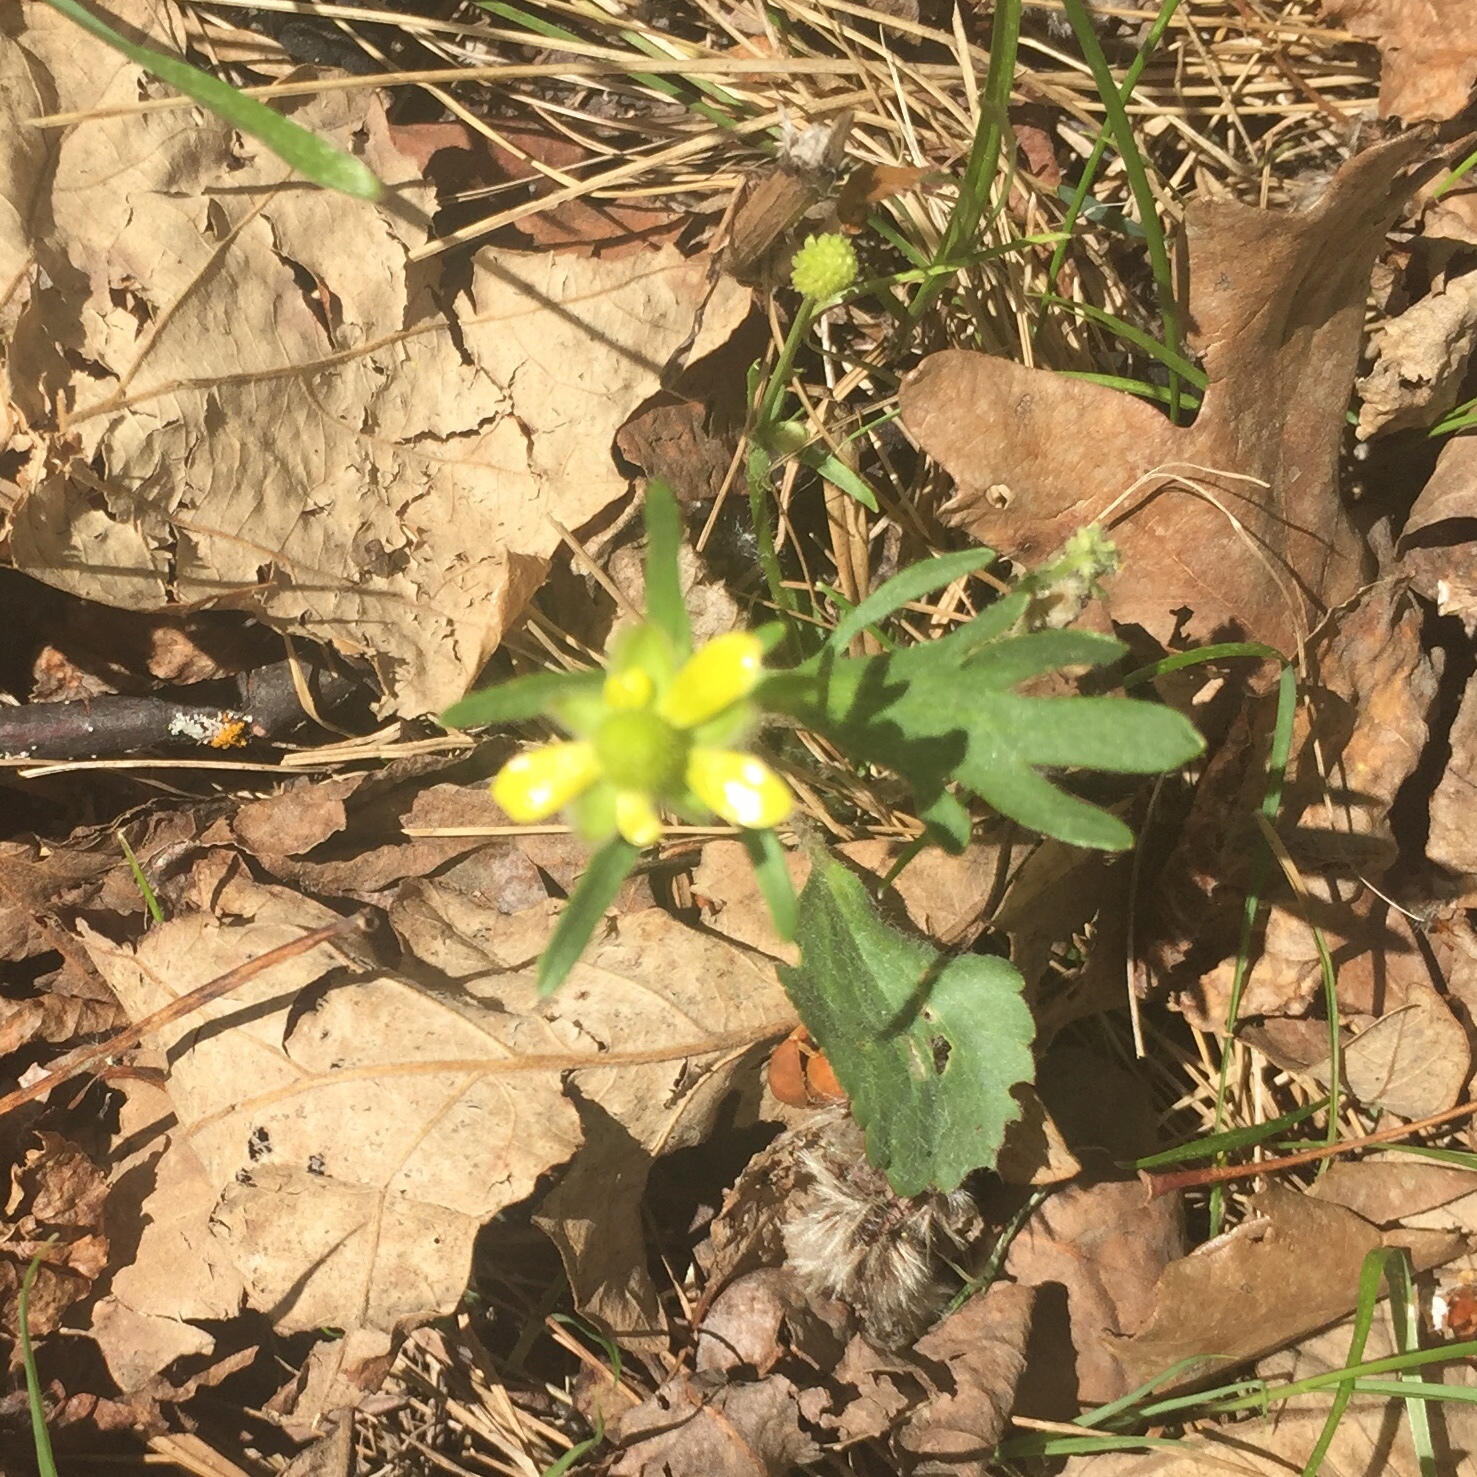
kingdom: Plantae
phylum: Tracheophyta
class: Magnoliopsida
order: Ranunculales
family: Ranunculaceae
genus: Ranunculus
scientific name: Ranunculus rhomboideus
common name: Prairie buttercup
